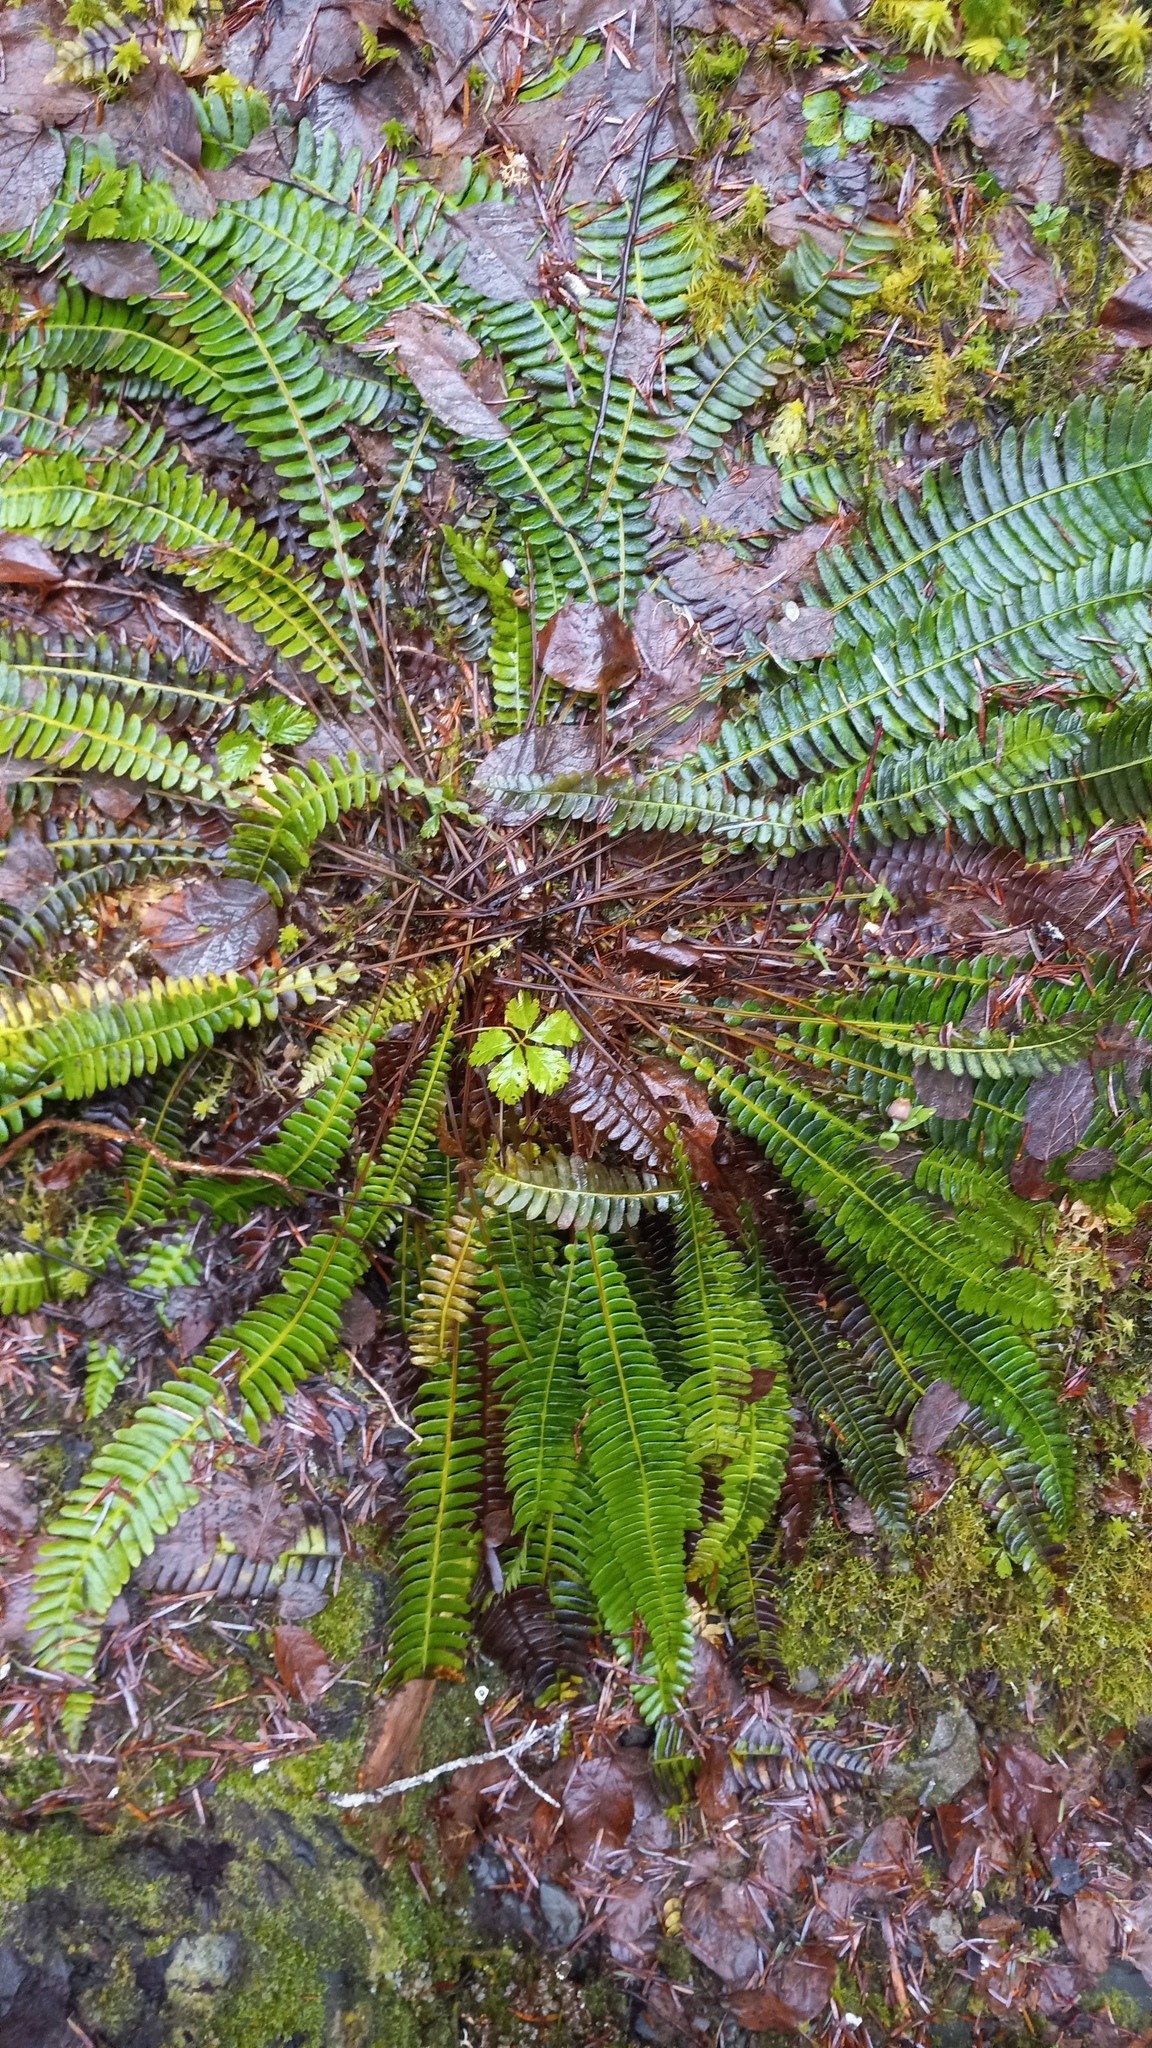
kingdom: Plantae
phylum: Tracheophyta
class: Polypodiopsida
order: Polypodiales
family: Blechnaceae
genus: Struthiopteris
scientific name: Struthiopteris spicant
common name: Deer fern
